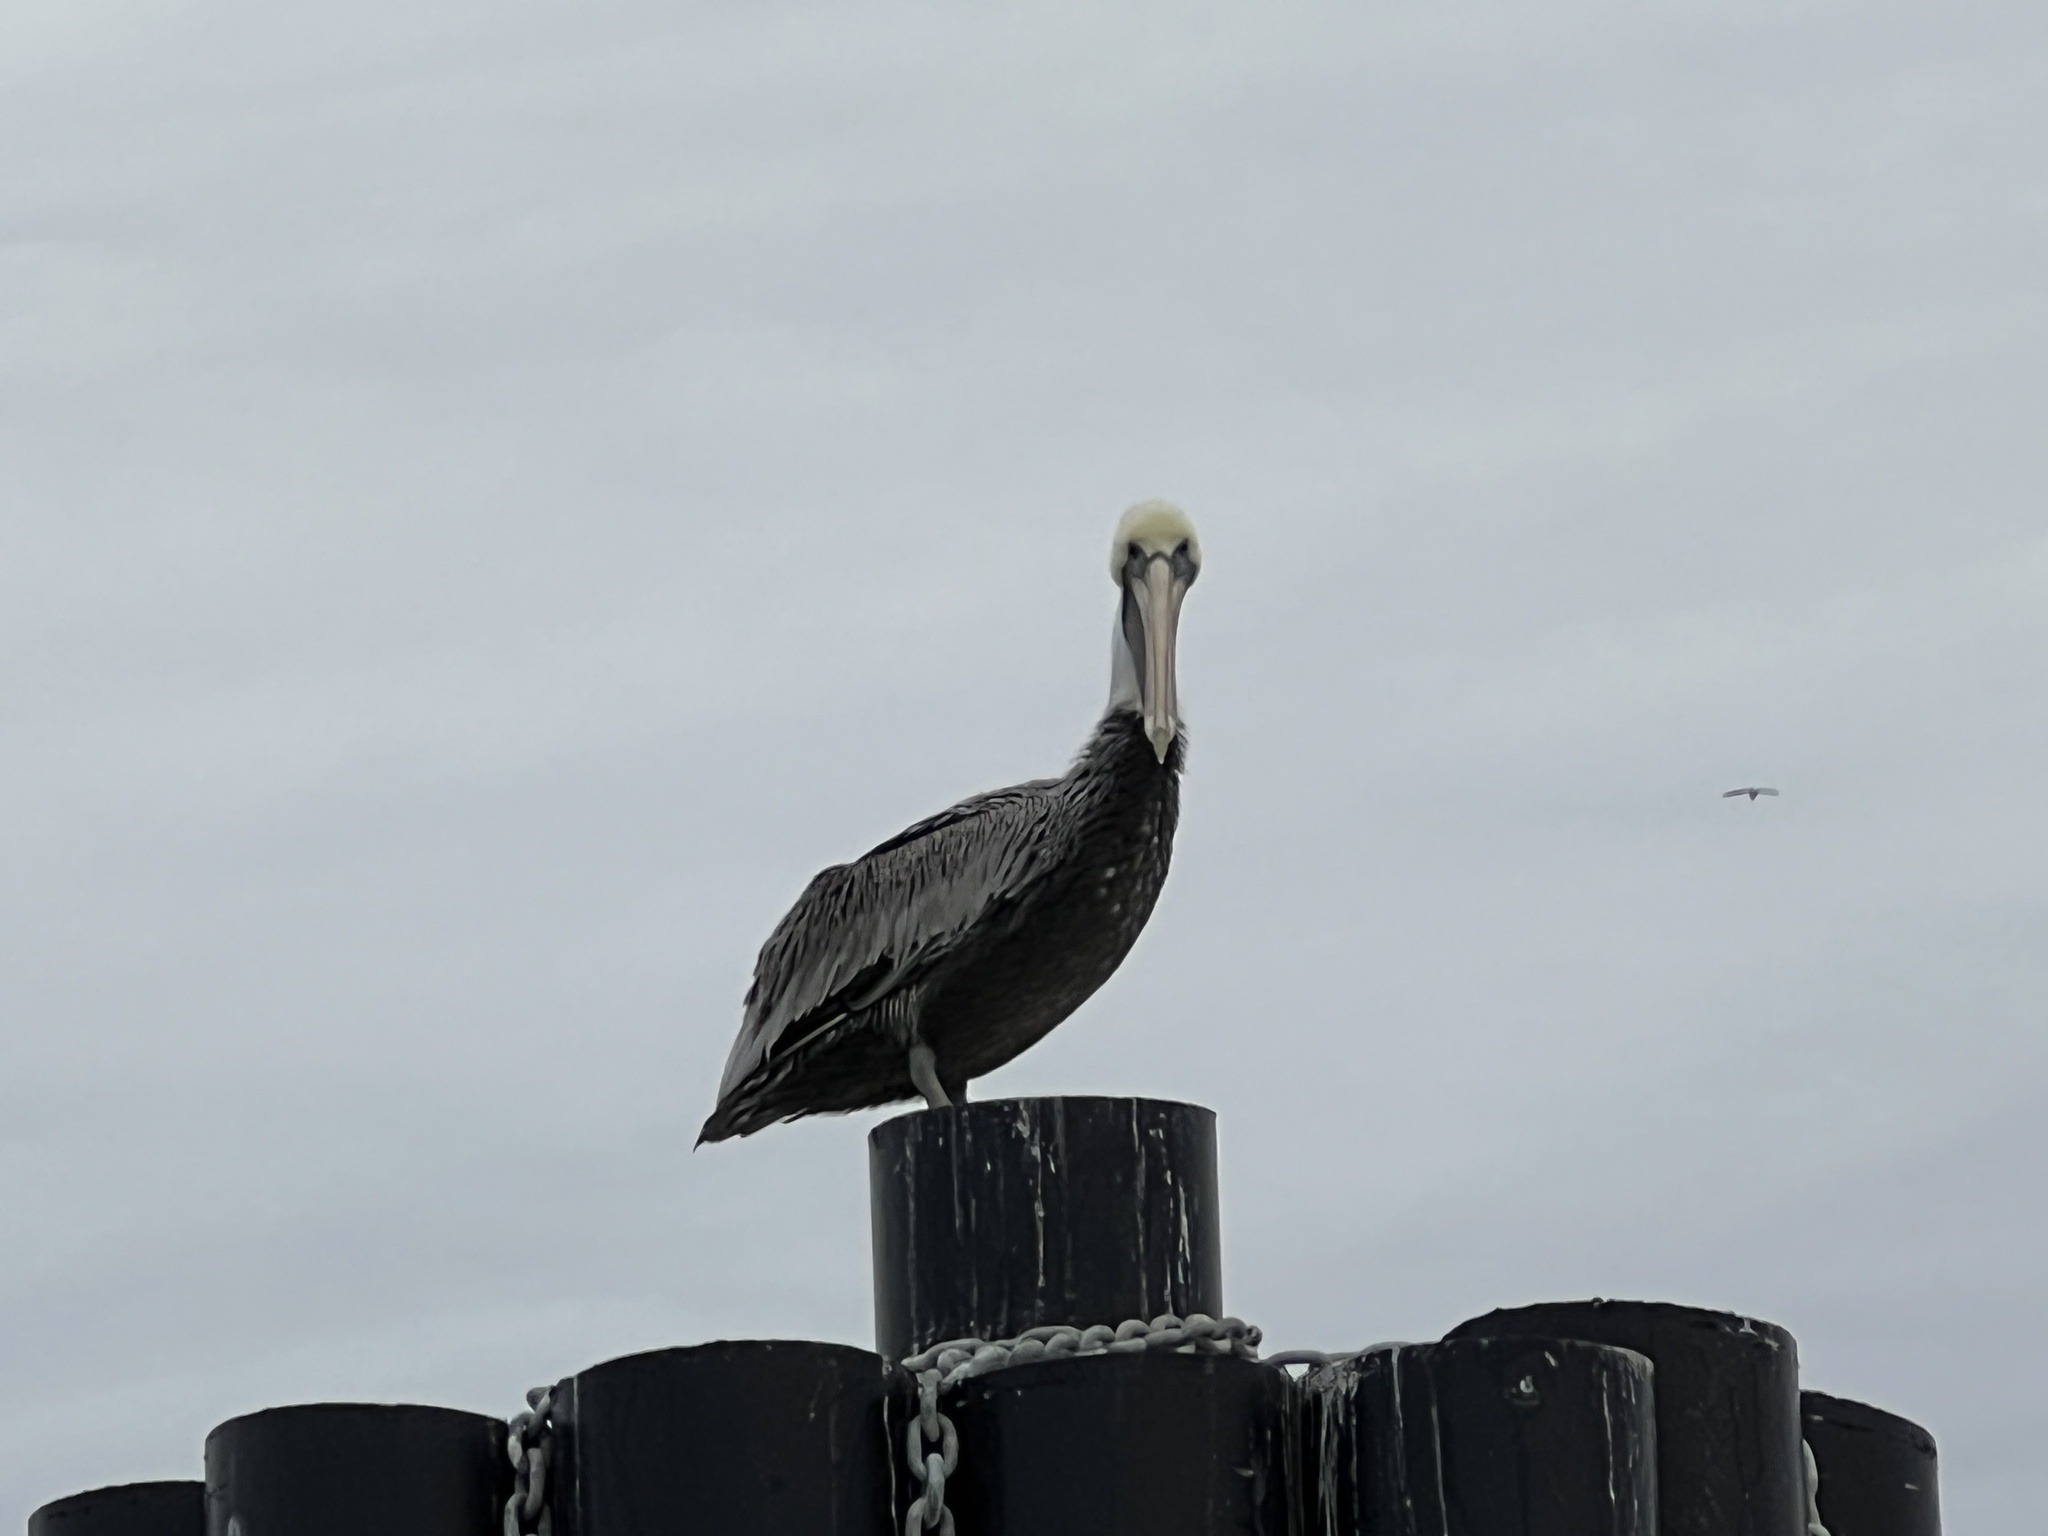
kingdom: Animalia
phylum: Chordata
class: Aves
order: Pelecaniformes
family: Pelecanidae
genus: Pelecanus
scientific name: Pelecanus occidentalis
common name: Brown pelican
